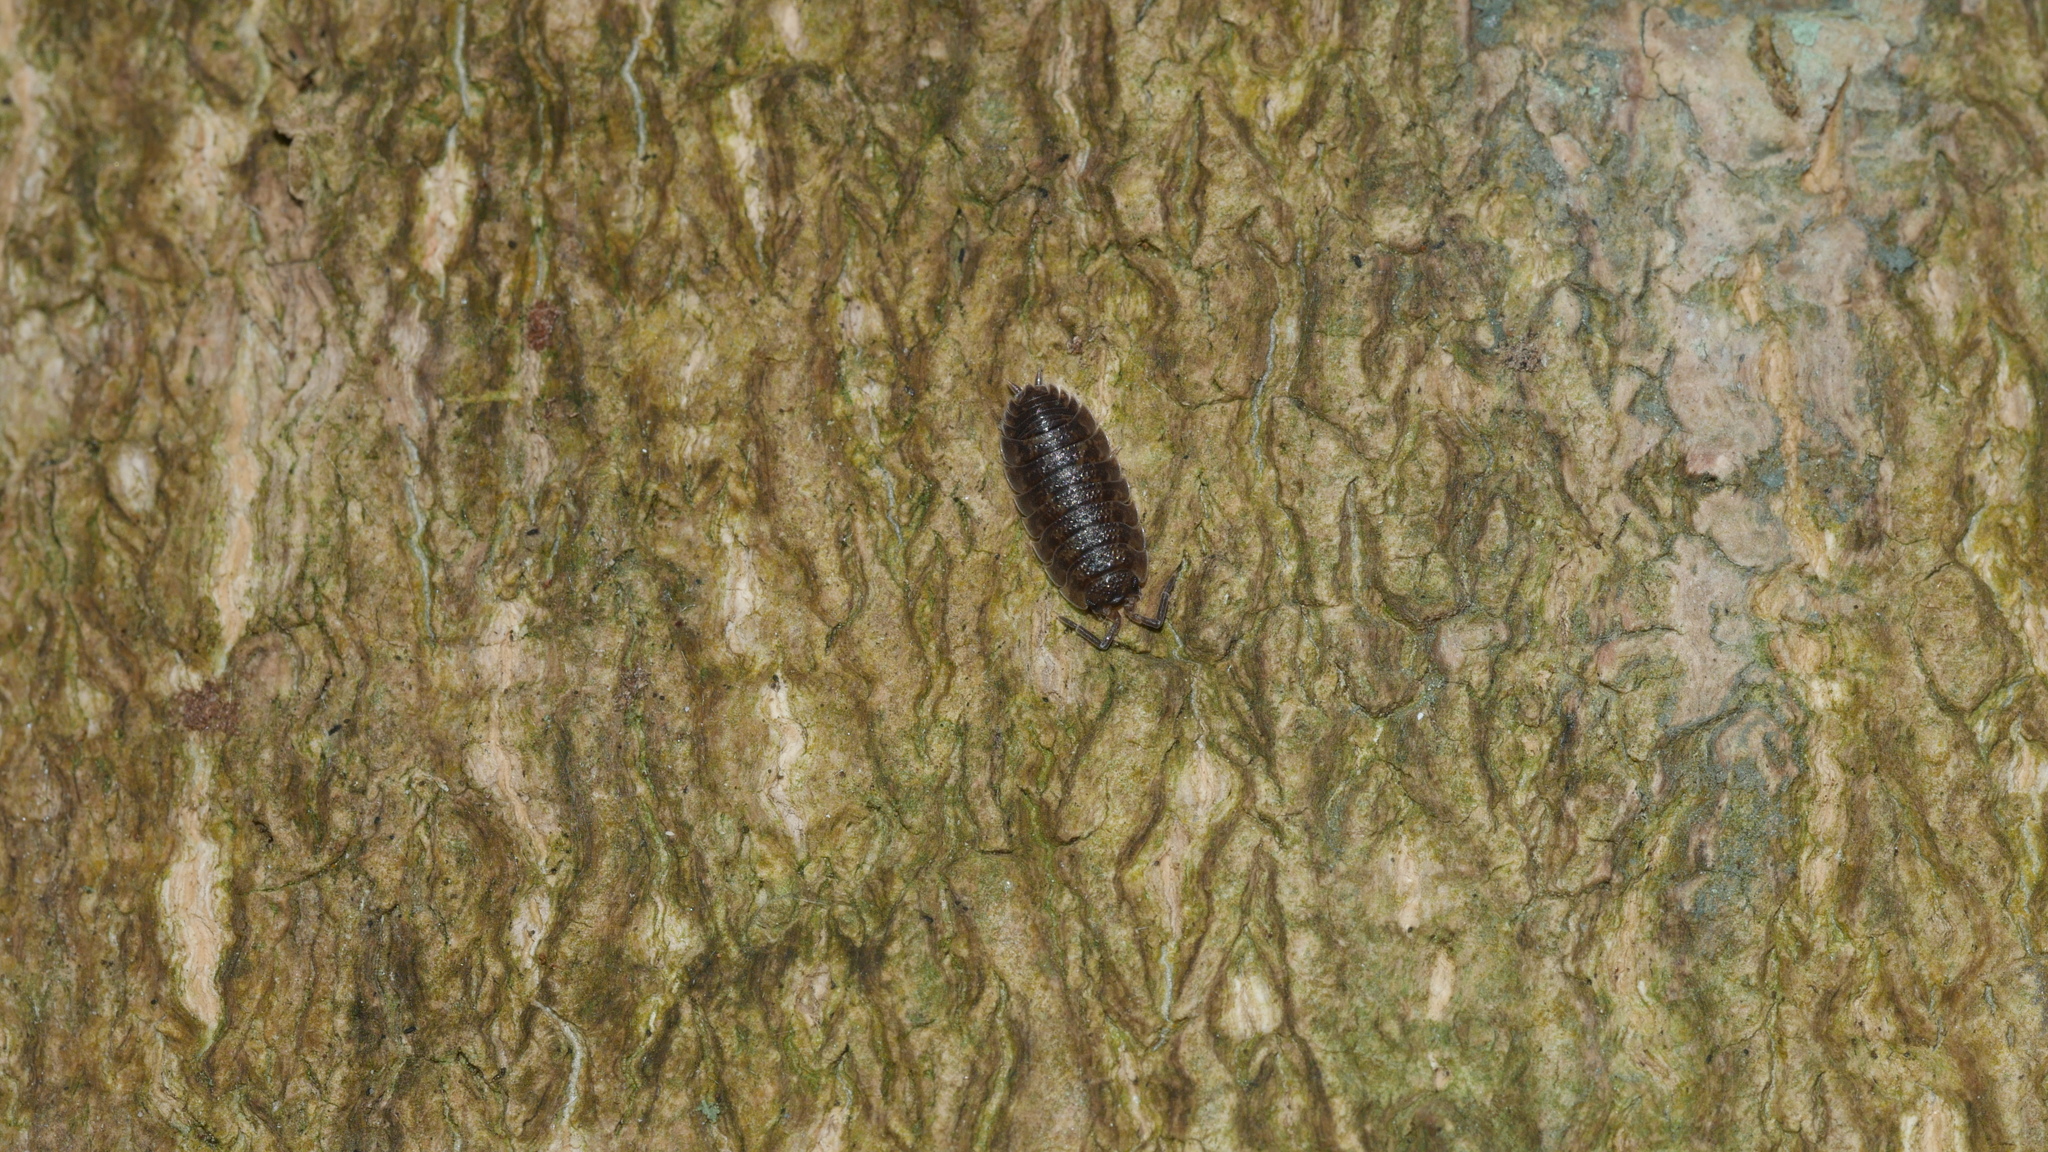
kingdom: Animalia
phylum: Arthropoda
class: Malacostraca
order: Isopoda
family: Porcellionidae
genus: Porcellio
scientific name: Porcellio scaber
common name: Common rough woodlouse
